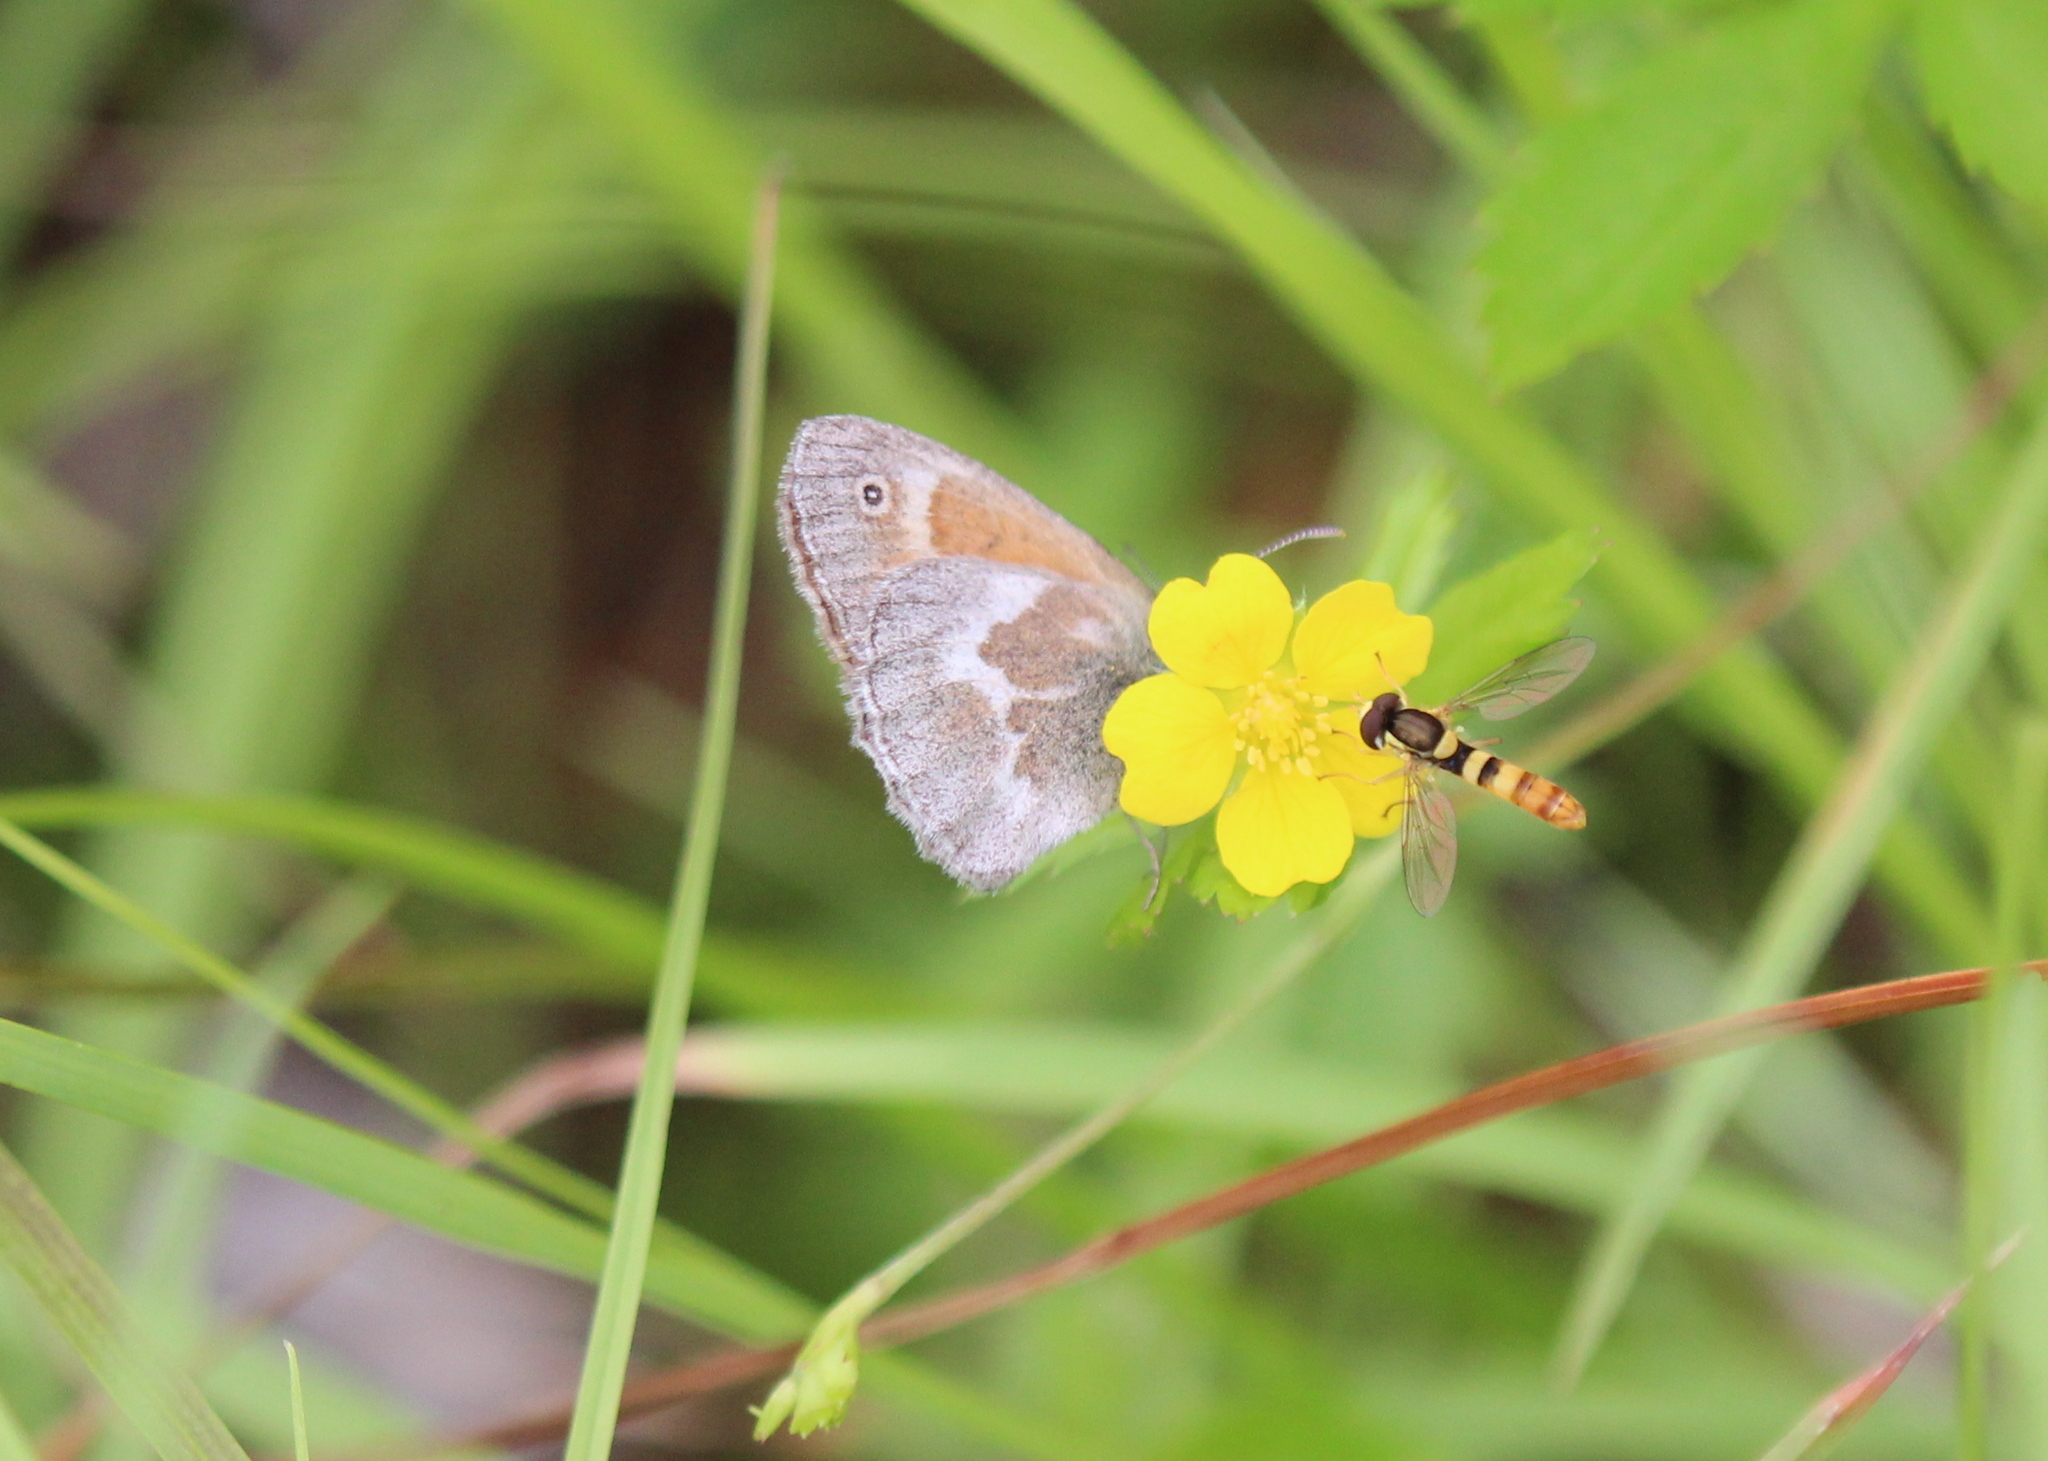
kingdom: Animalia
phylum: Arthropoda
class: Insecta
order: Lepidoptera
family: Nymphalidae
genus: Coenonympha
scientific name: Coenonympha california
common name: Common ringlet
